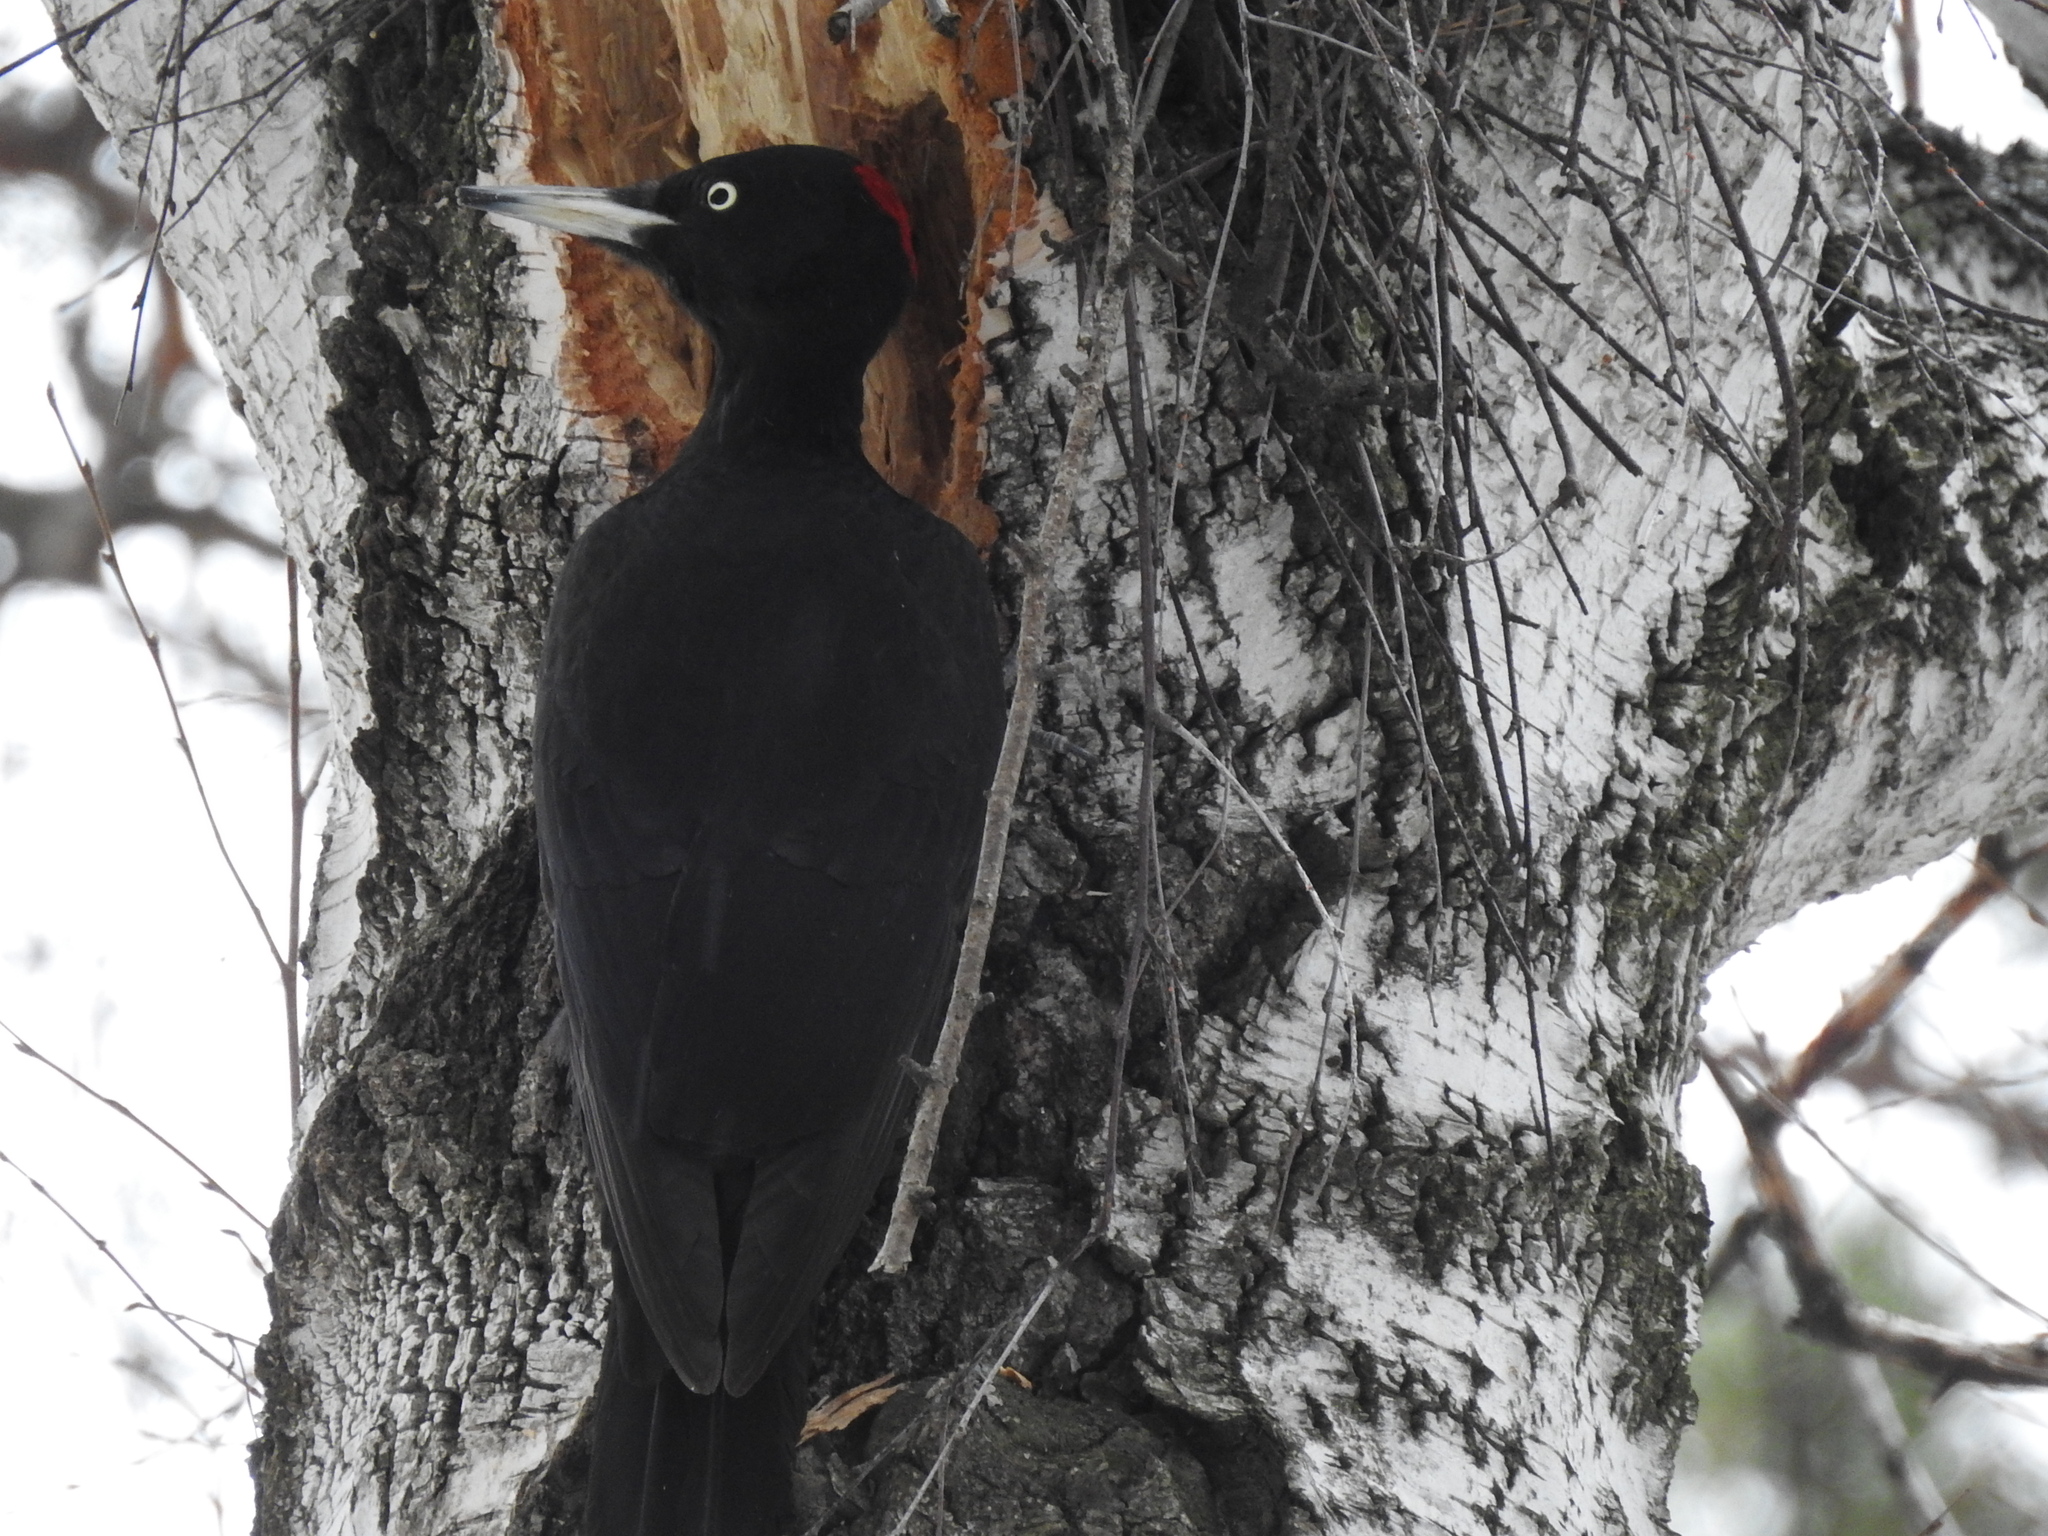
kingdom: Animalia
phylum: Chordata
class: Aves
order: Piciformes
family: Picidae
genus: Dryocopus
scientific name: Dryocopus martius
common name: Black woodpecker
